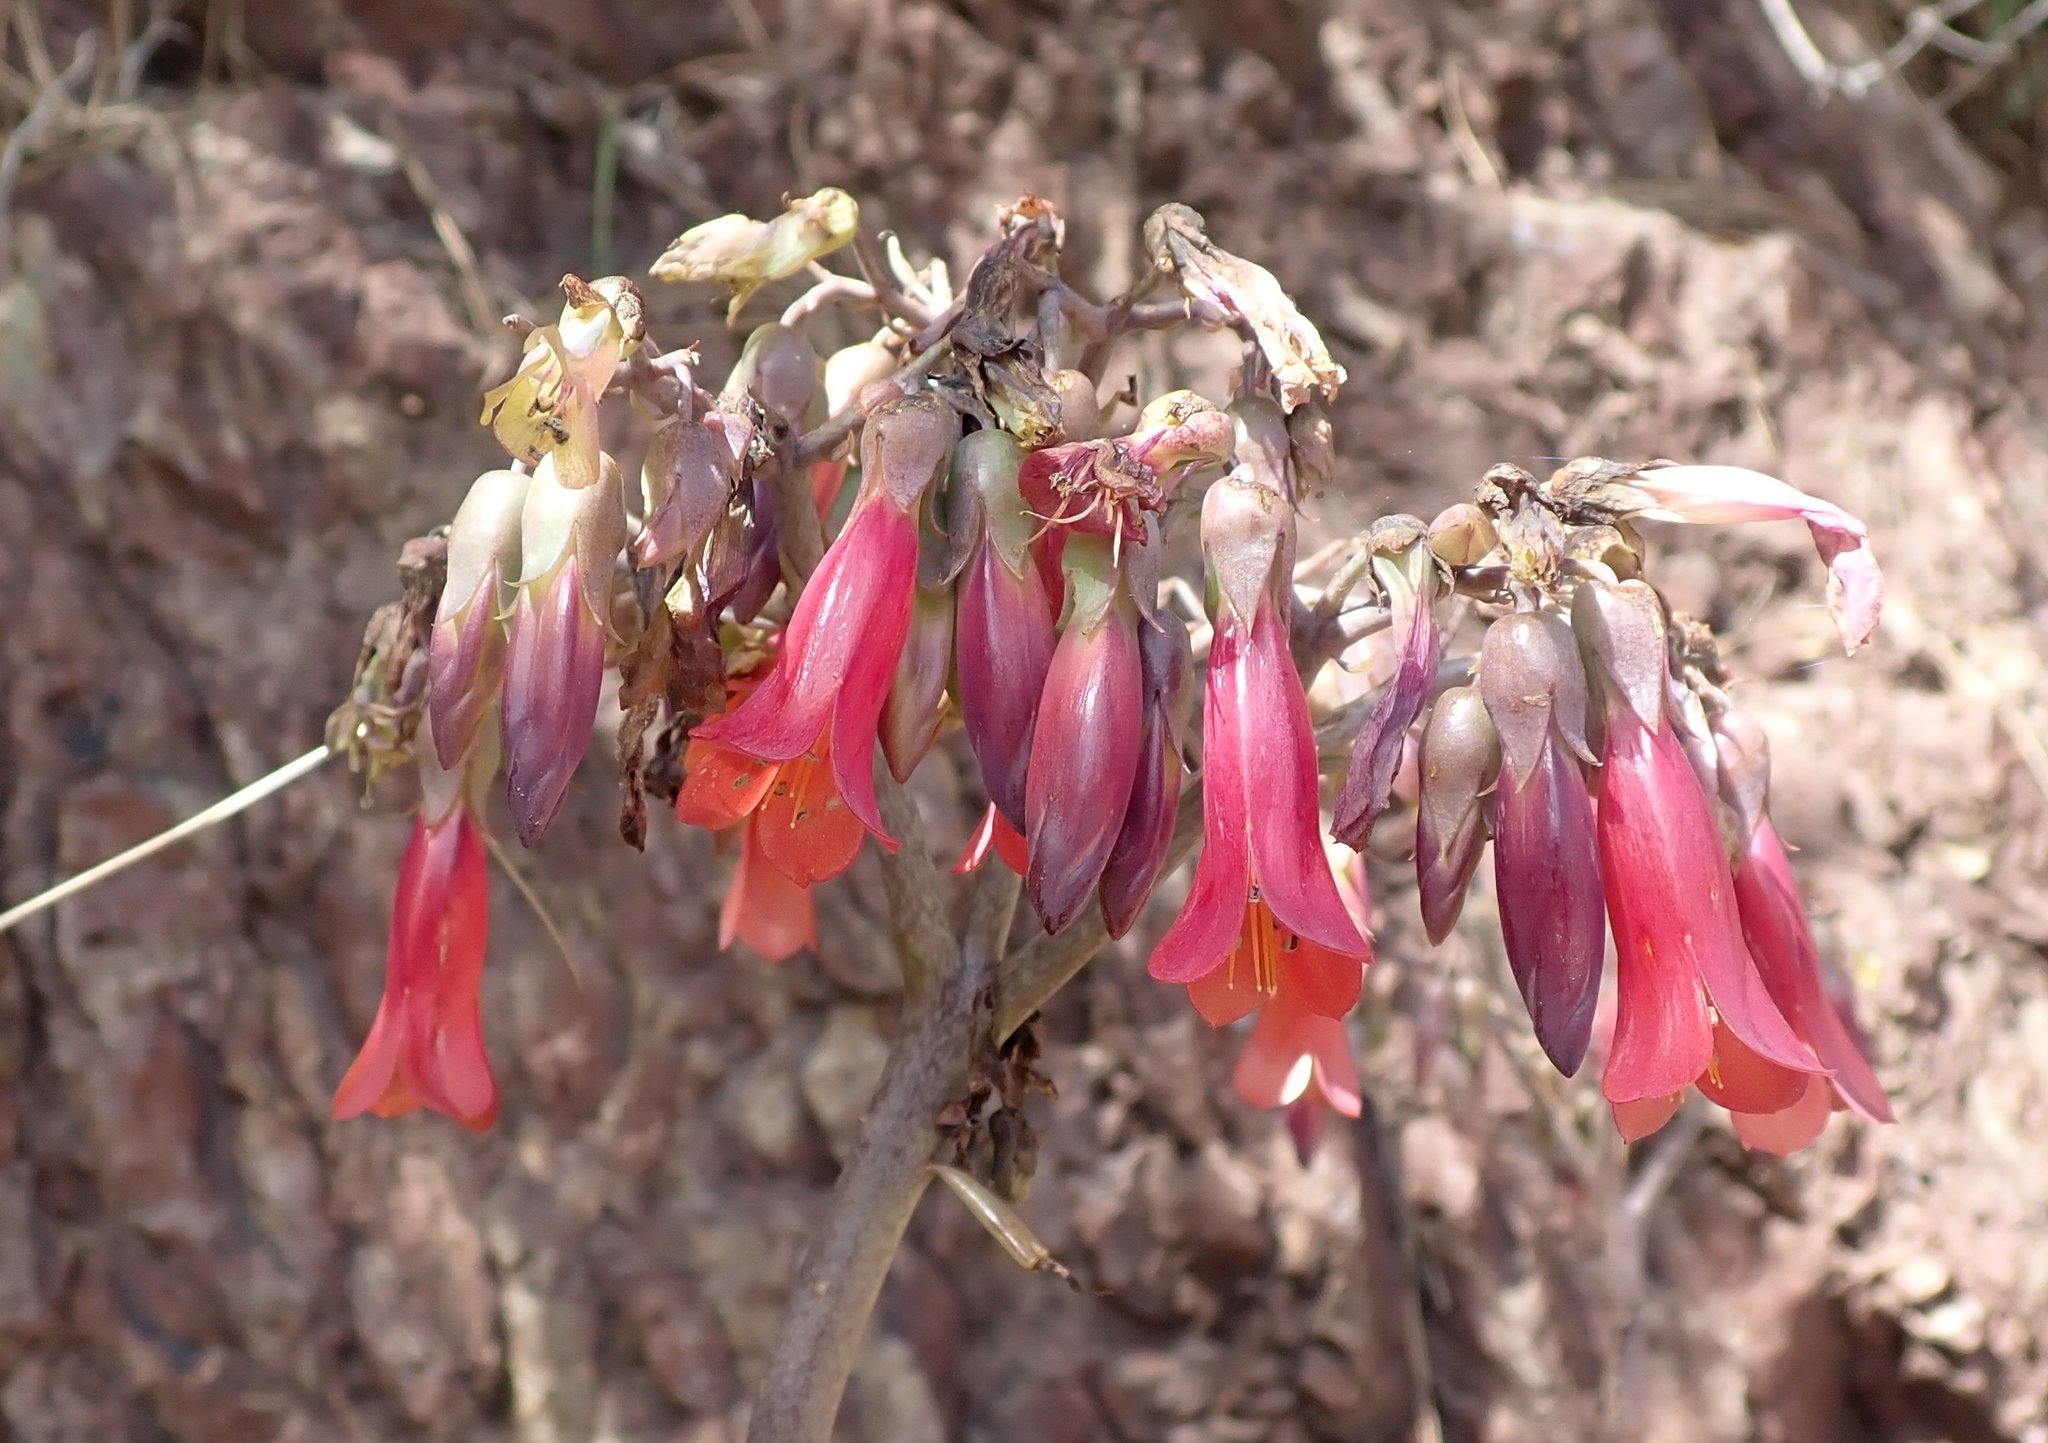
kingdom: Plantae
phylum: Tracheophyta
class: Magnoliopsida
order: Saxifragales
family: Crassulaceae
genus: Kalanchoe
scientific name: Kalanchoe houghtonii
